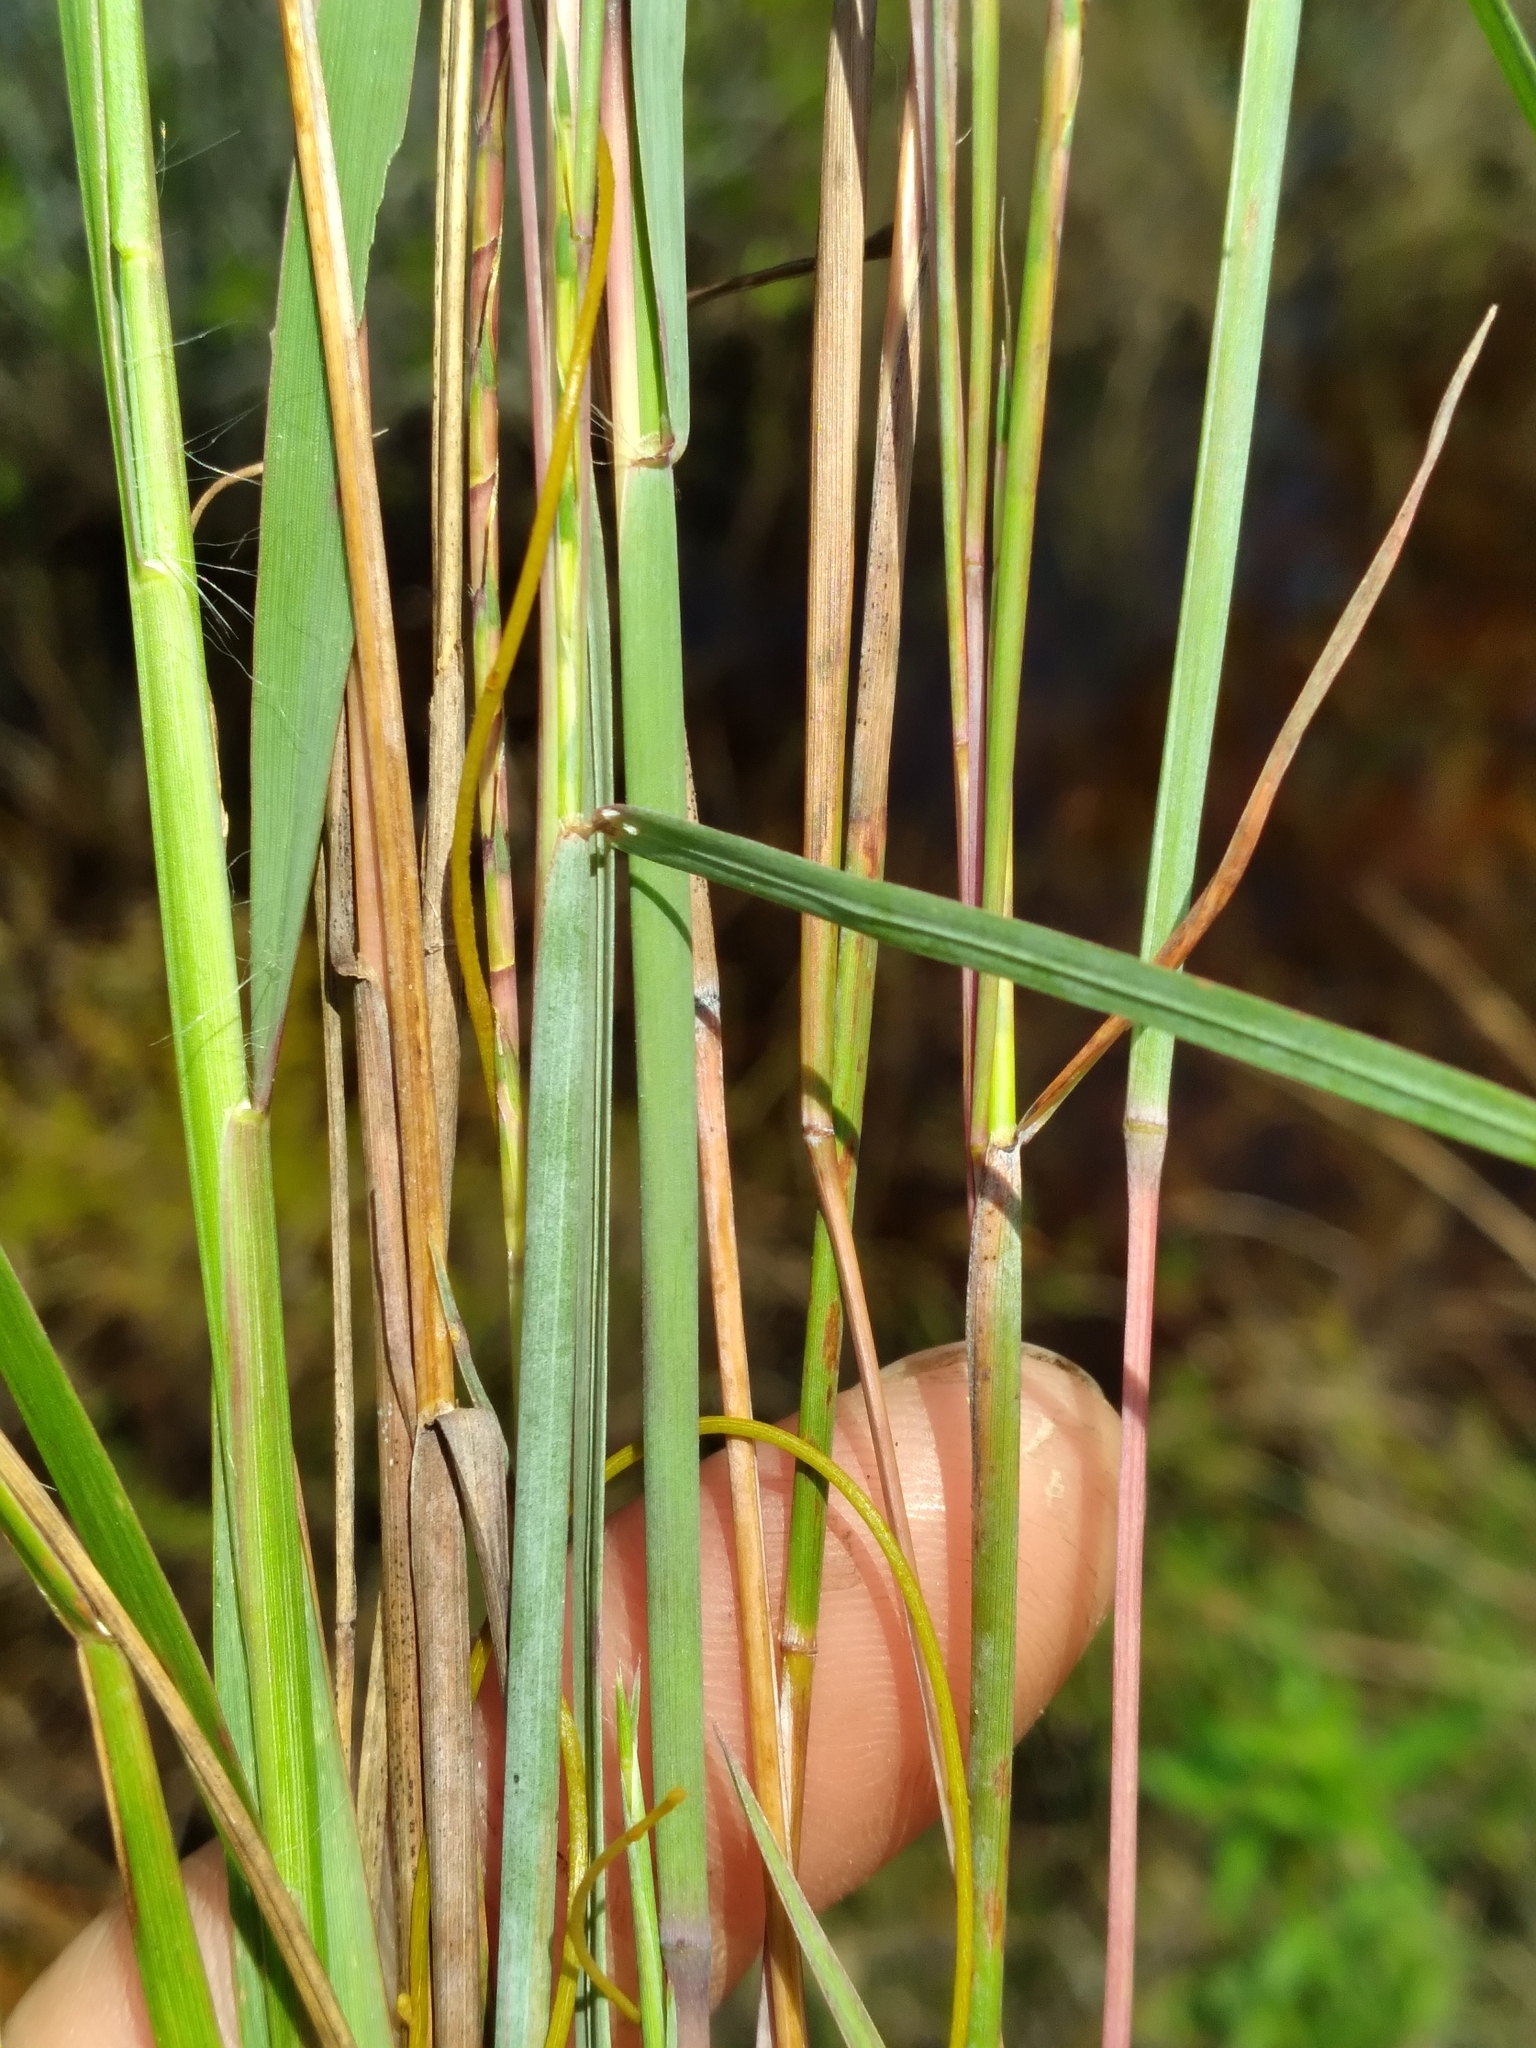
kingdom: Plantae
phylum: Tracheophyta
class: Liliopsida
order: Poales
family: Poaceae
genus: Schizachyrium
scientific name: Schizachyrium sanguineum
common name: Crimson bluestem
